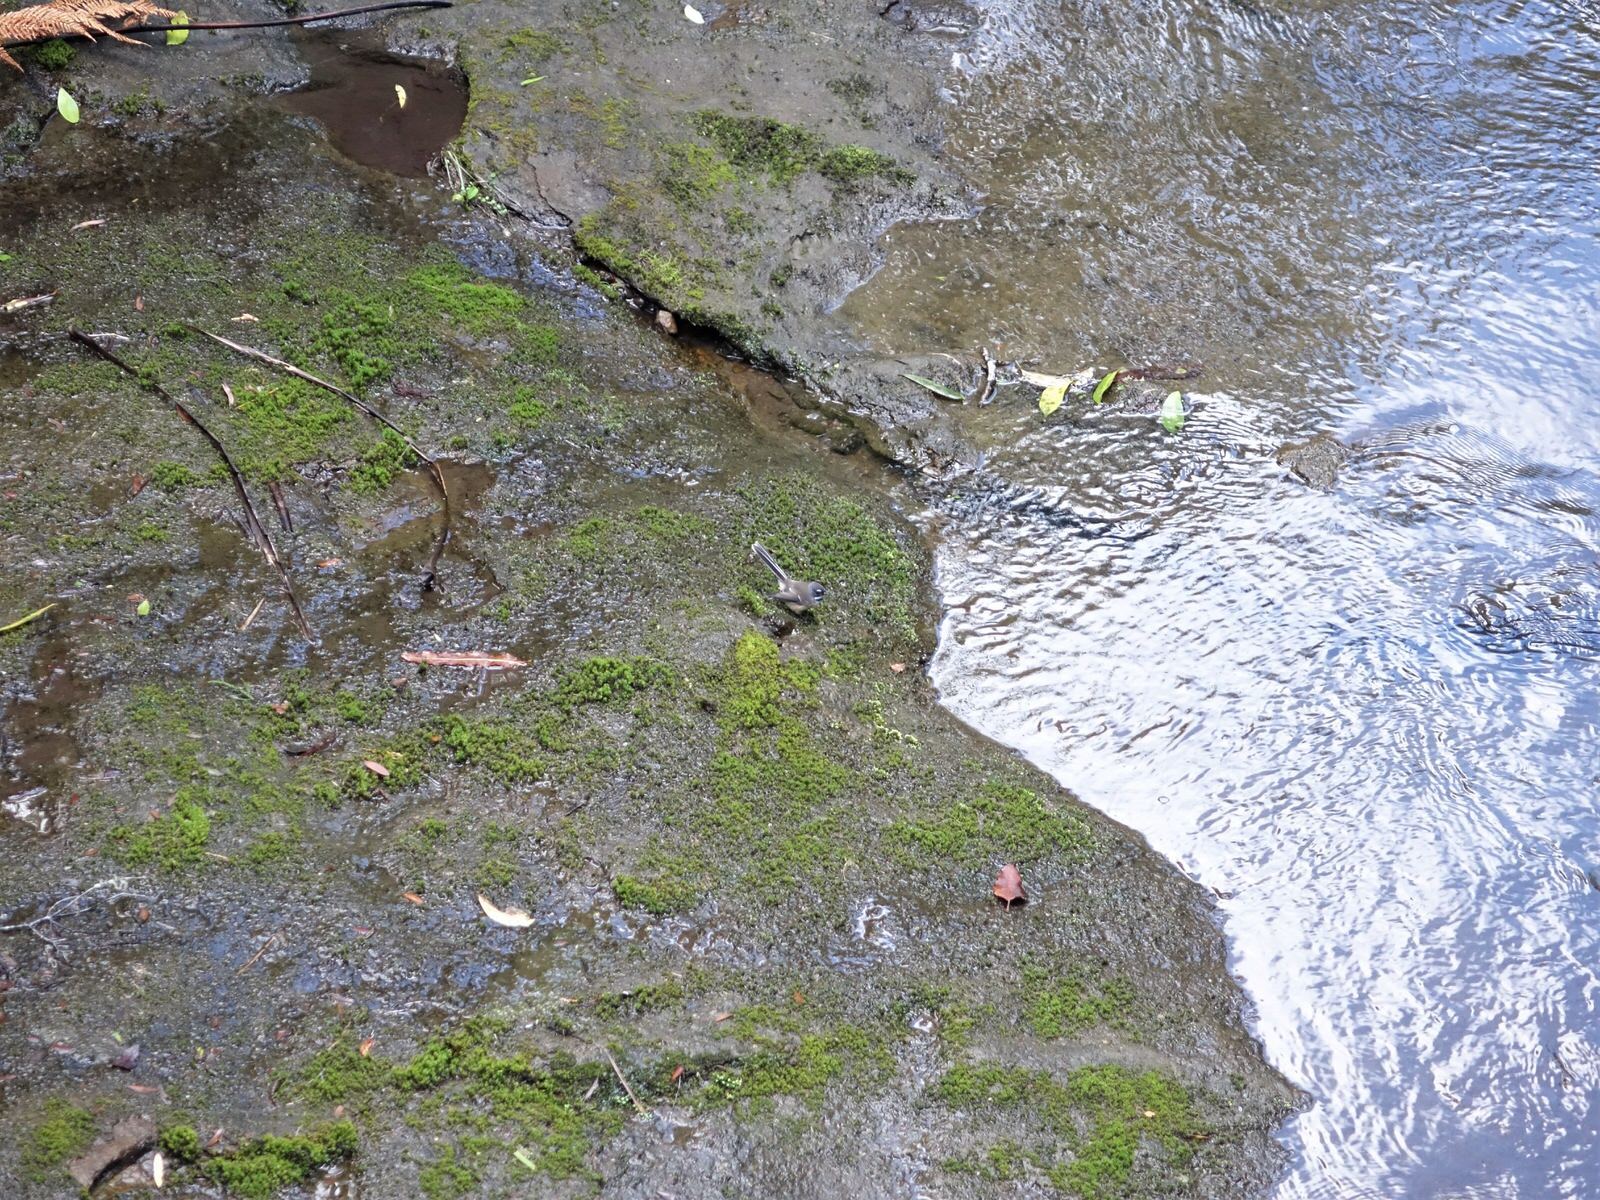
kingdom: Animalia
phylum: Chordata
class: Aves
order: Passeriformes
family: Rhipiduridae
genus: Rhipidura
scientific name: Rhipidura fuliginosa
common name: New zealand fantail
